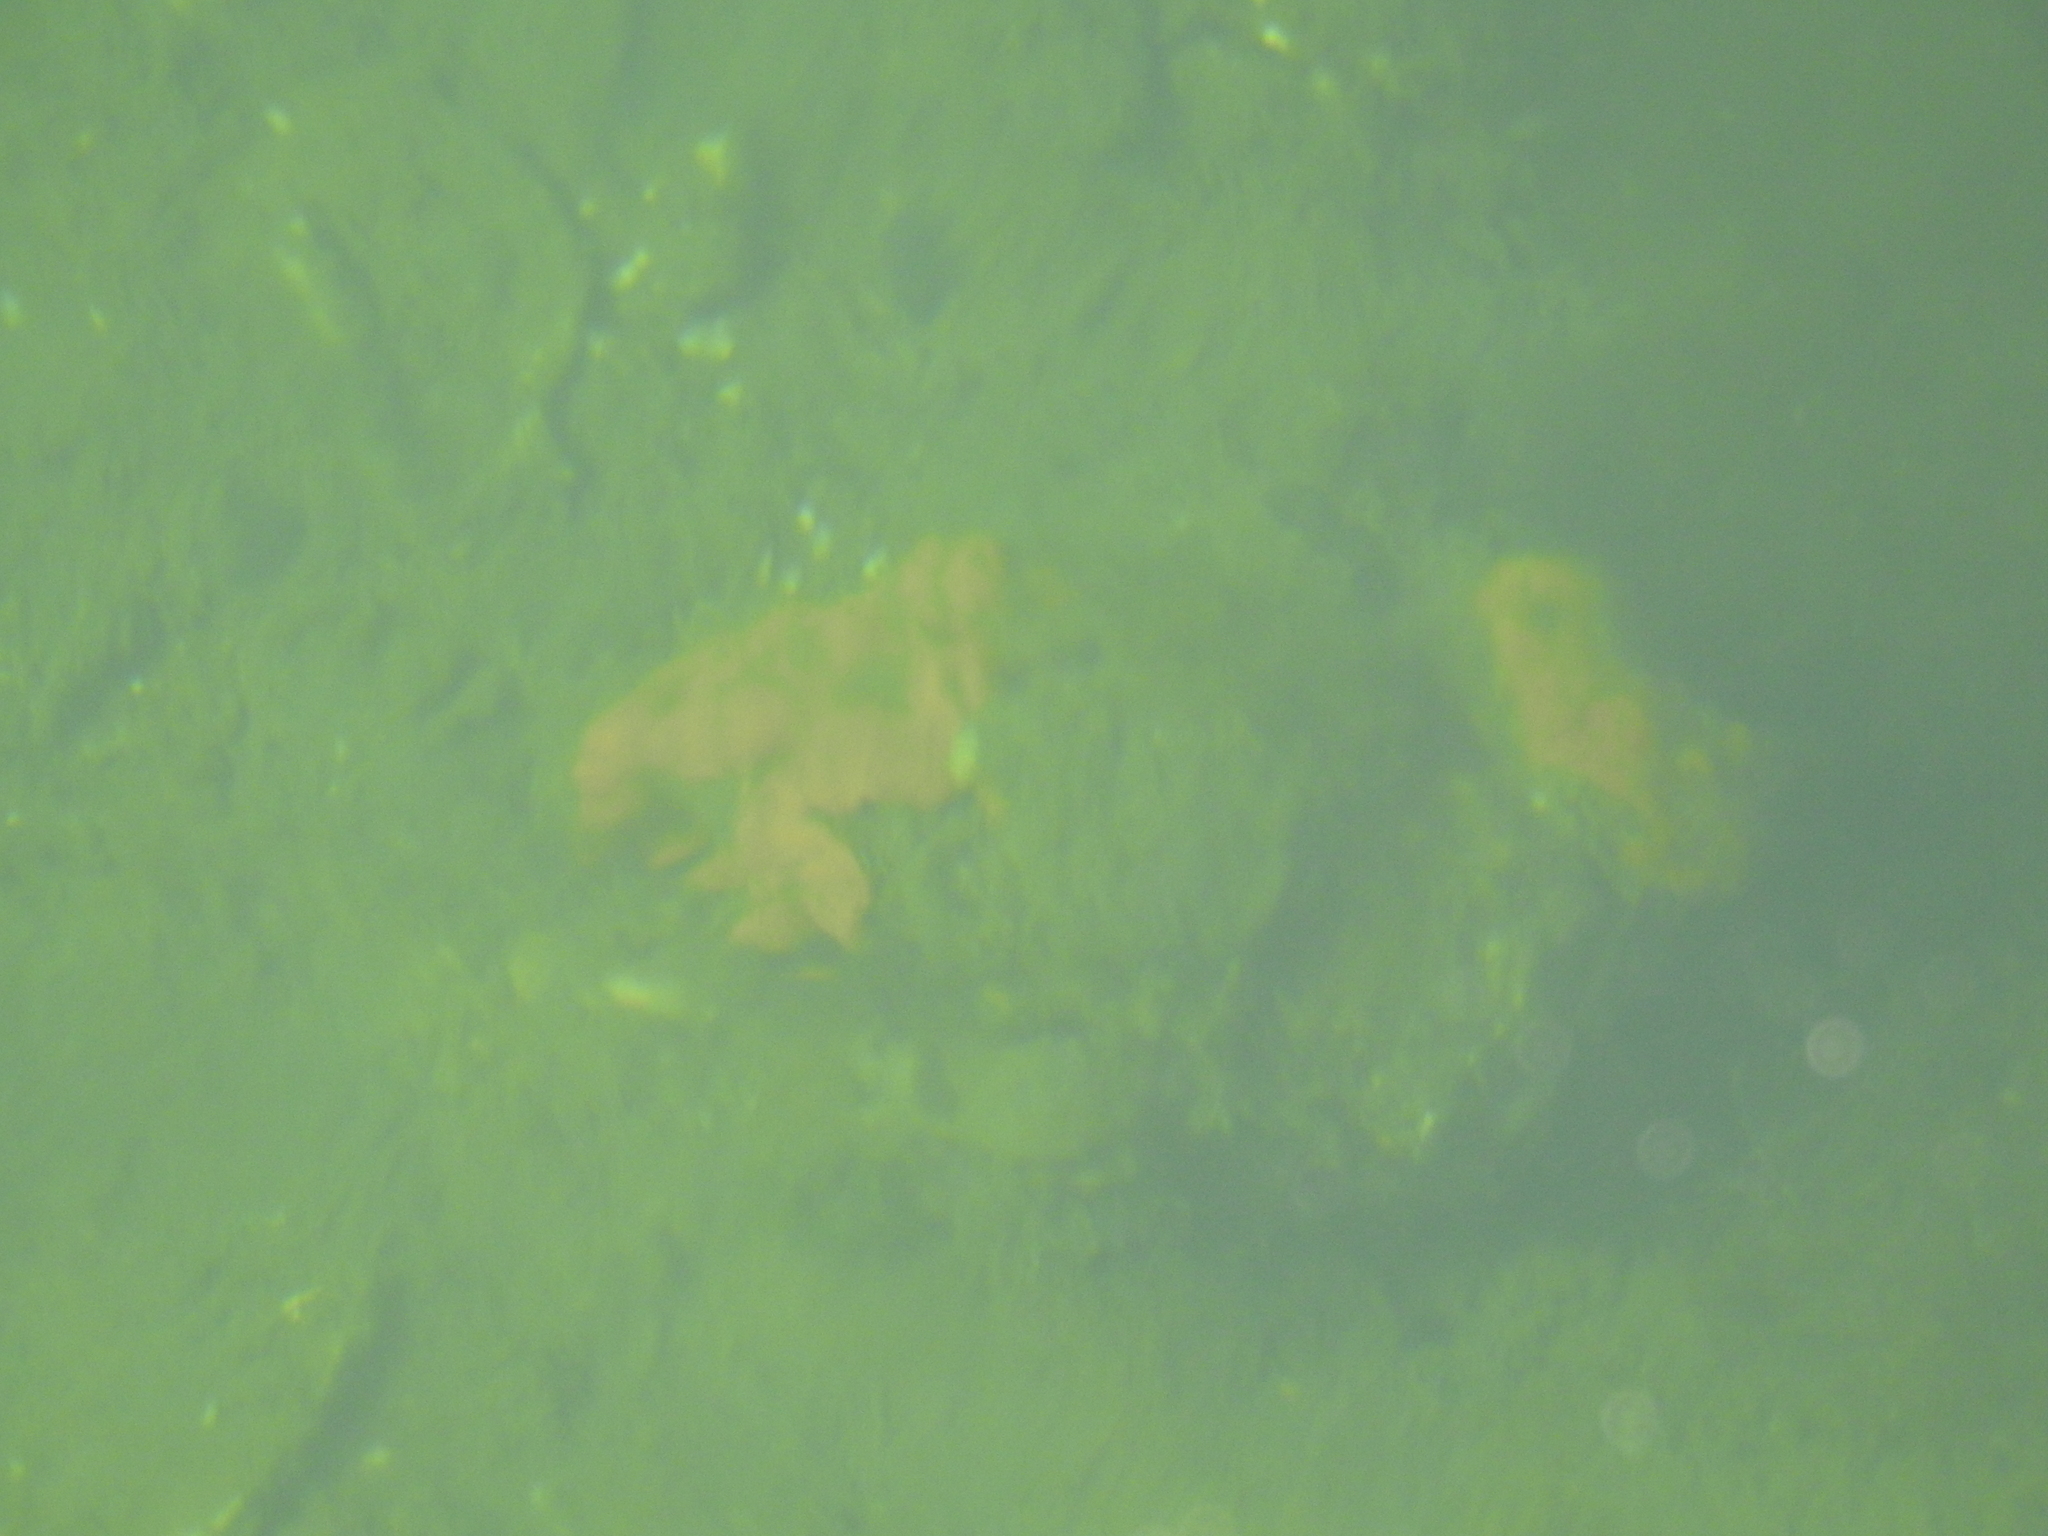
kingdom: Animalia
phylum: Chordata
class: Ascidiacea
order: Stolidobranchia
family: Styelidae
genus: Botrylloides
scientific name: Botrylloides violaceus
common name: Colonial sea squirt
